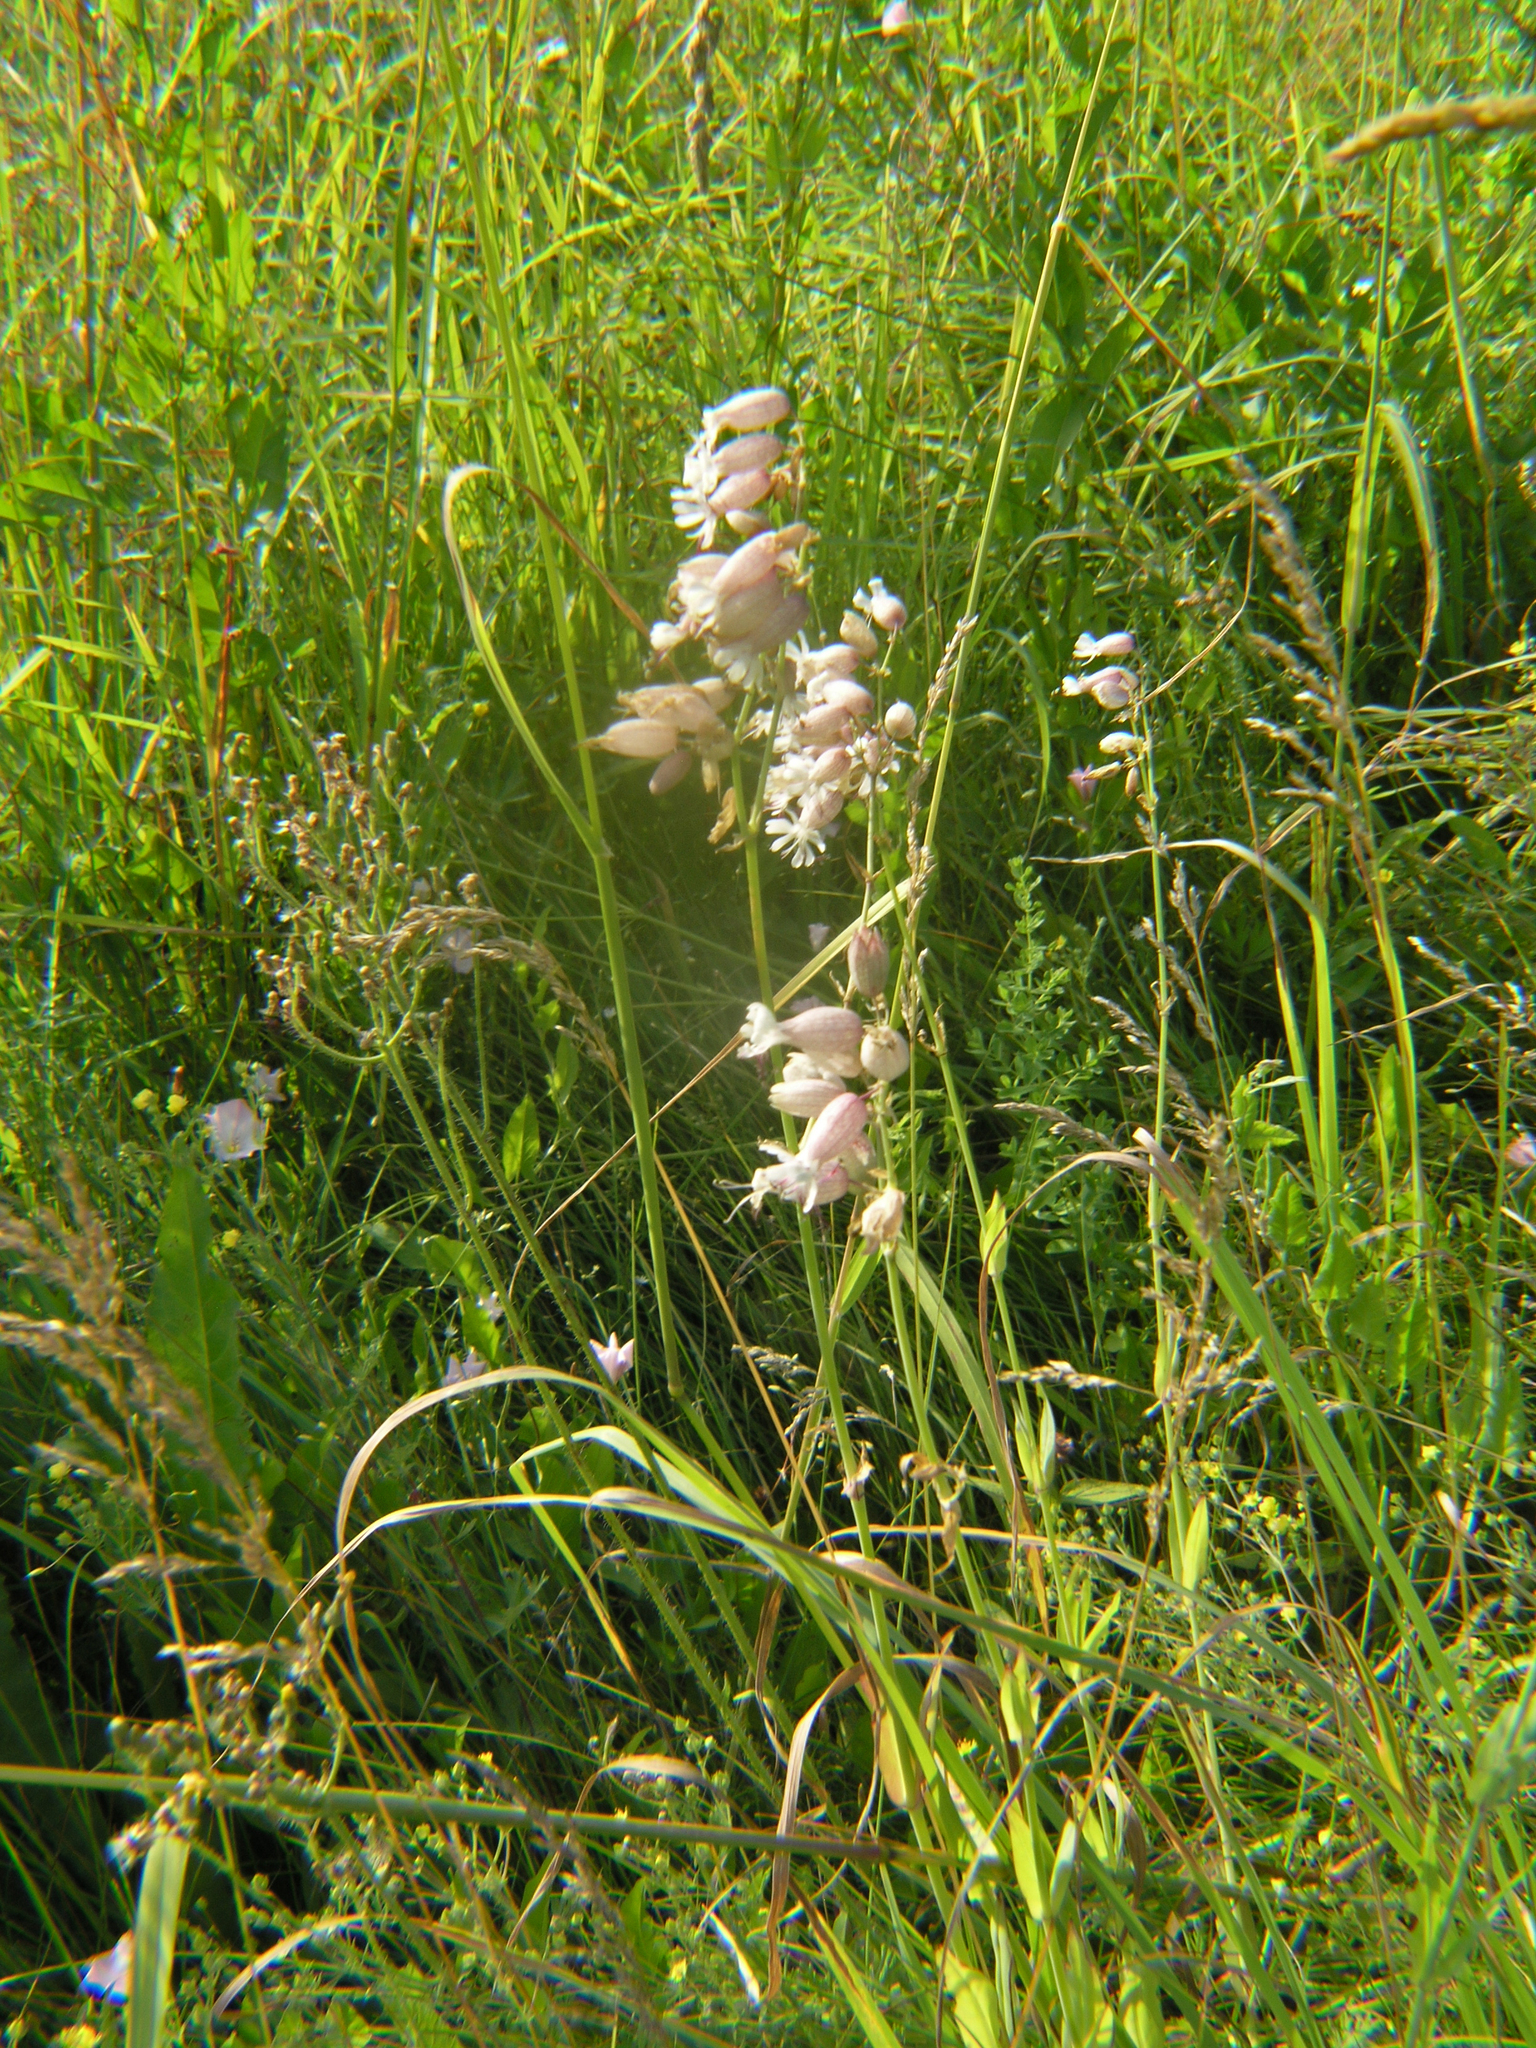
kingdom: Plantae
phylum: Tracheophyta
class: Magnoliopsida
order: Caryophyllales
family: Caryophyllaceae
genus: Silene
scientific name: Silene vulgaris
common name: Bladder campion
